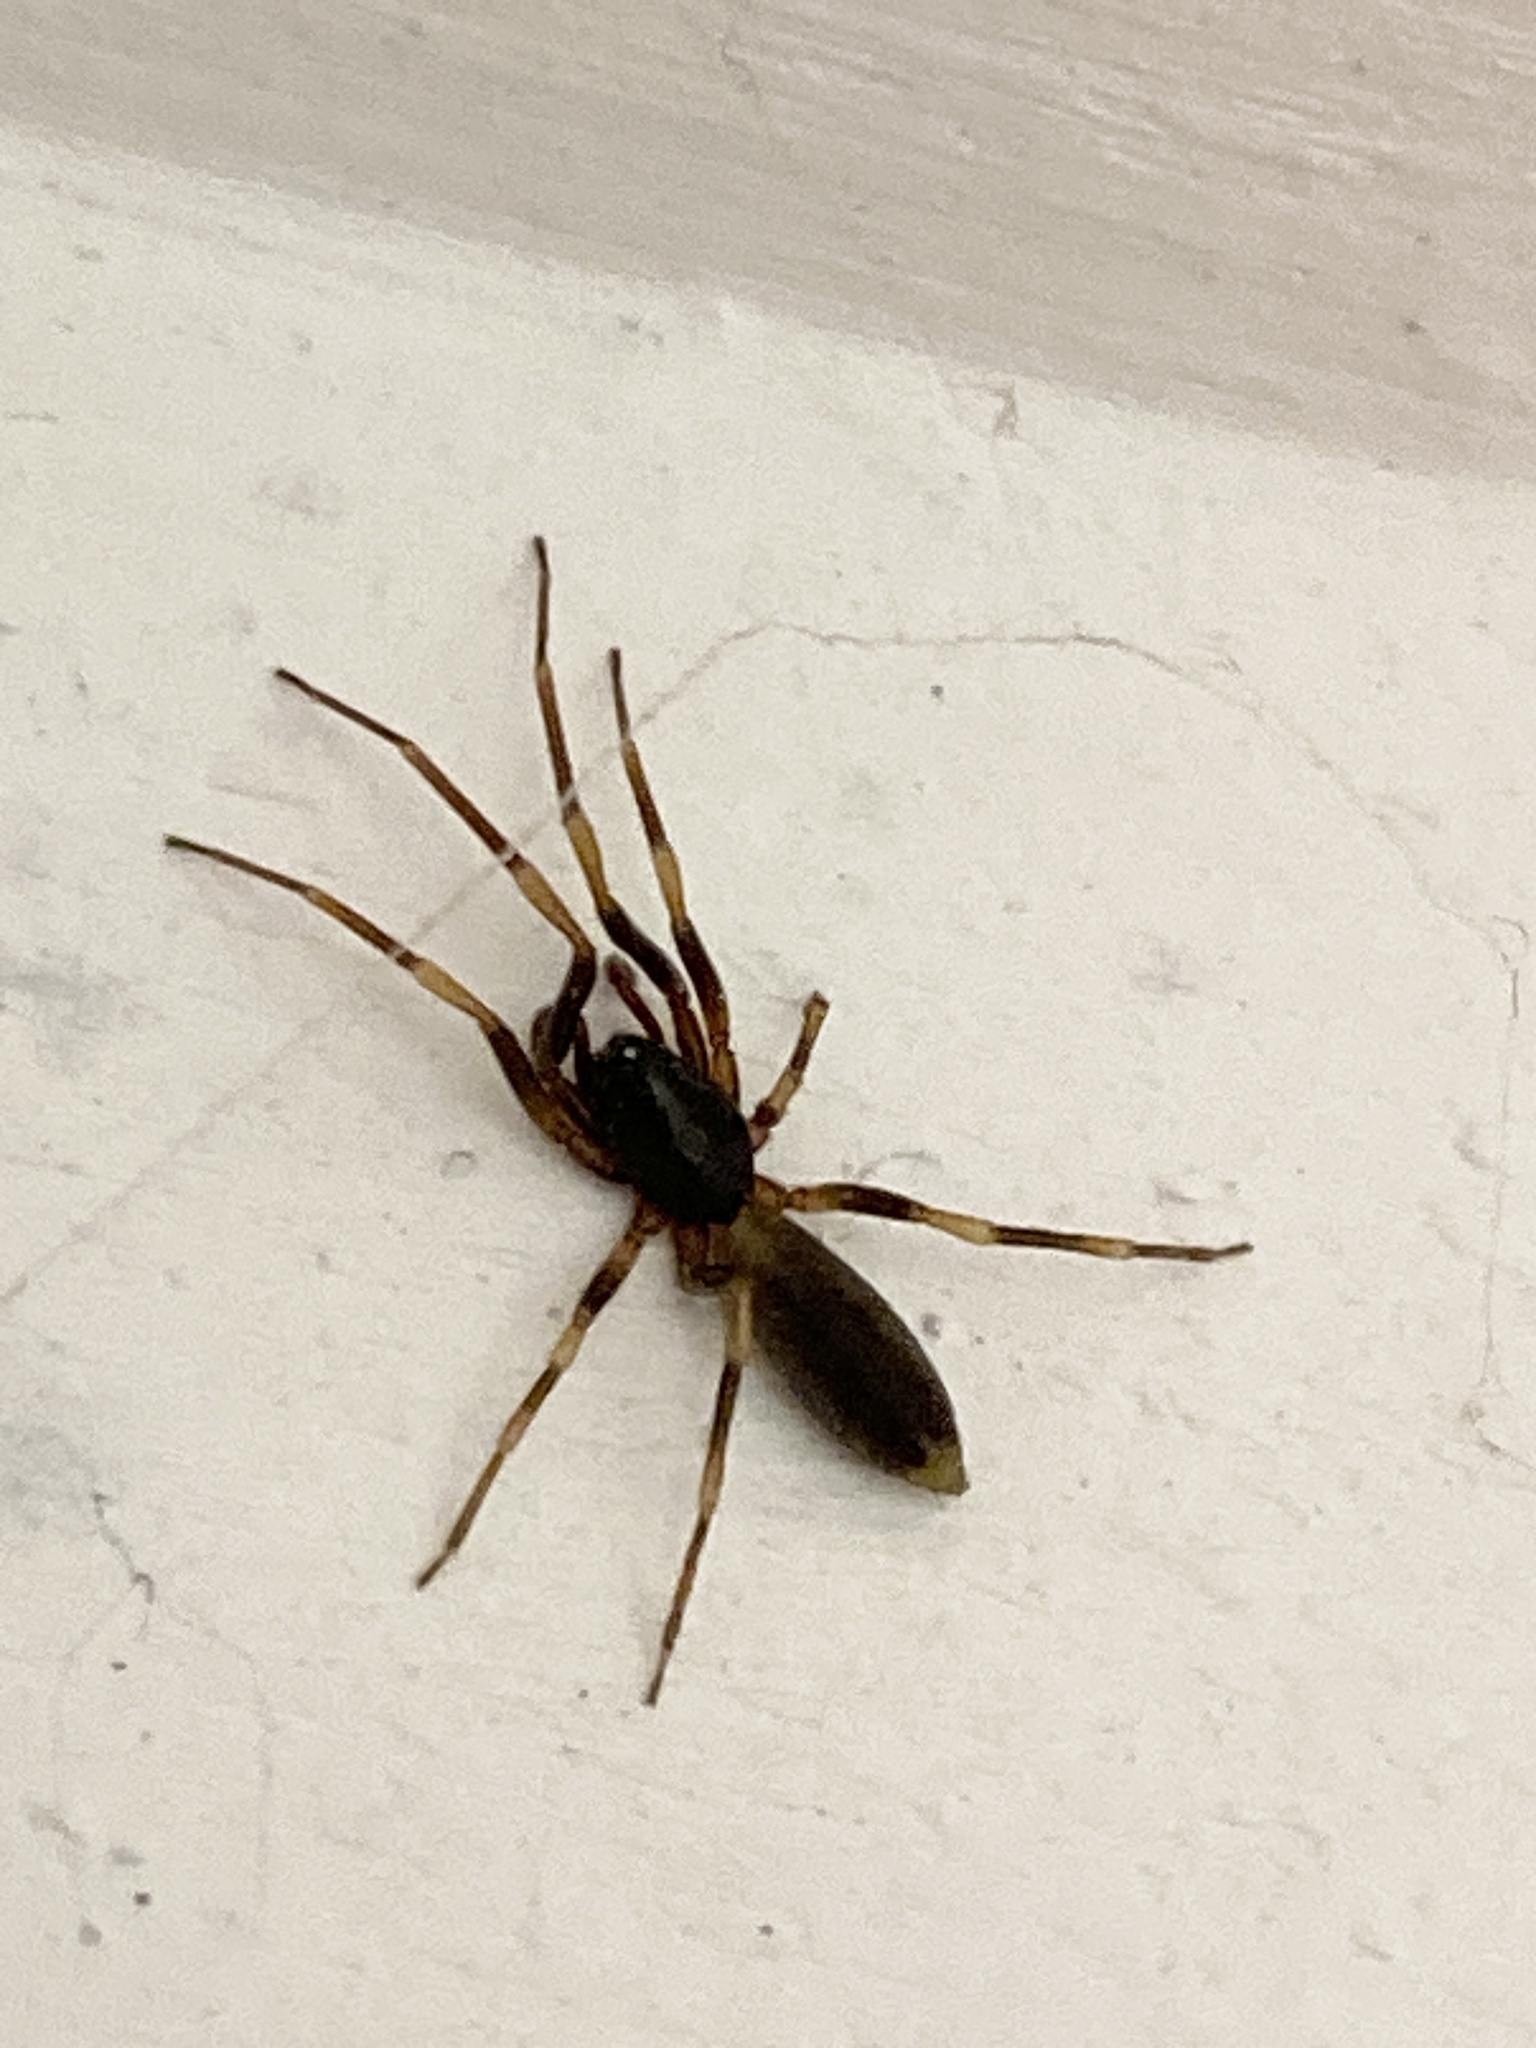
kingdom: Animalia
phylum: Arthropoda
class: Arachnida
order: Araneae
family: Dysderidae
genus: Harpactea
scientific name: Harpactea hombergi
